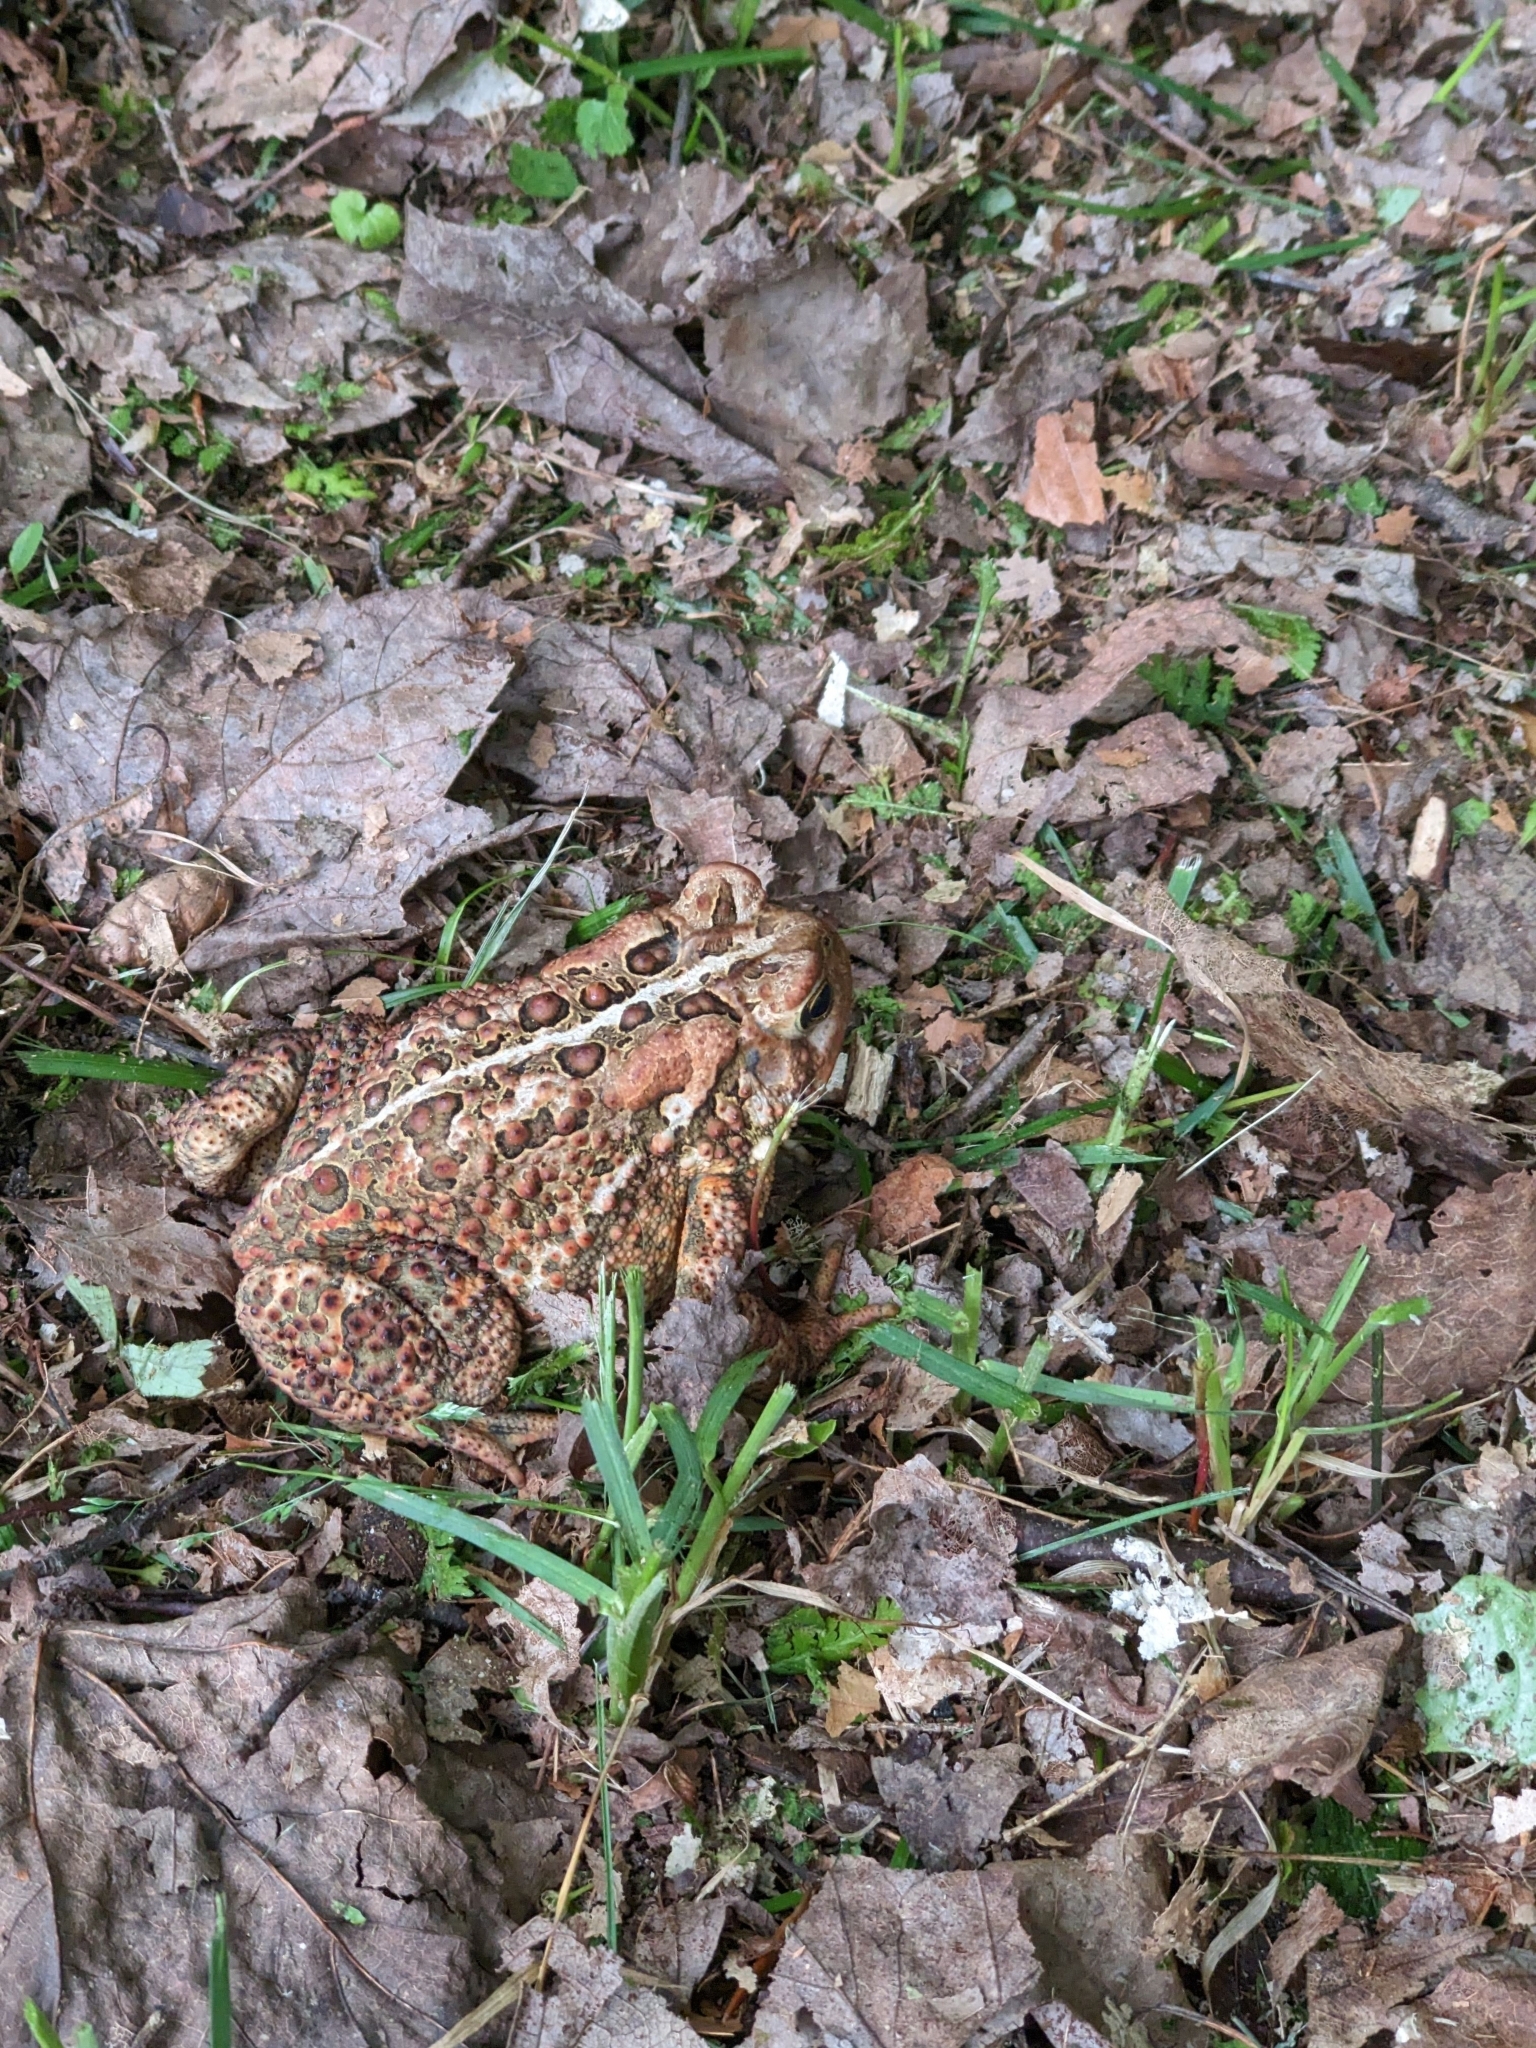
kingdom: Animalia
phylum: Chordata
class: Amphibia
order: Anura
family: Bufonidae
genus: Anaxyrus
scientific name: Anaxyrus americanus
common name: American toad
